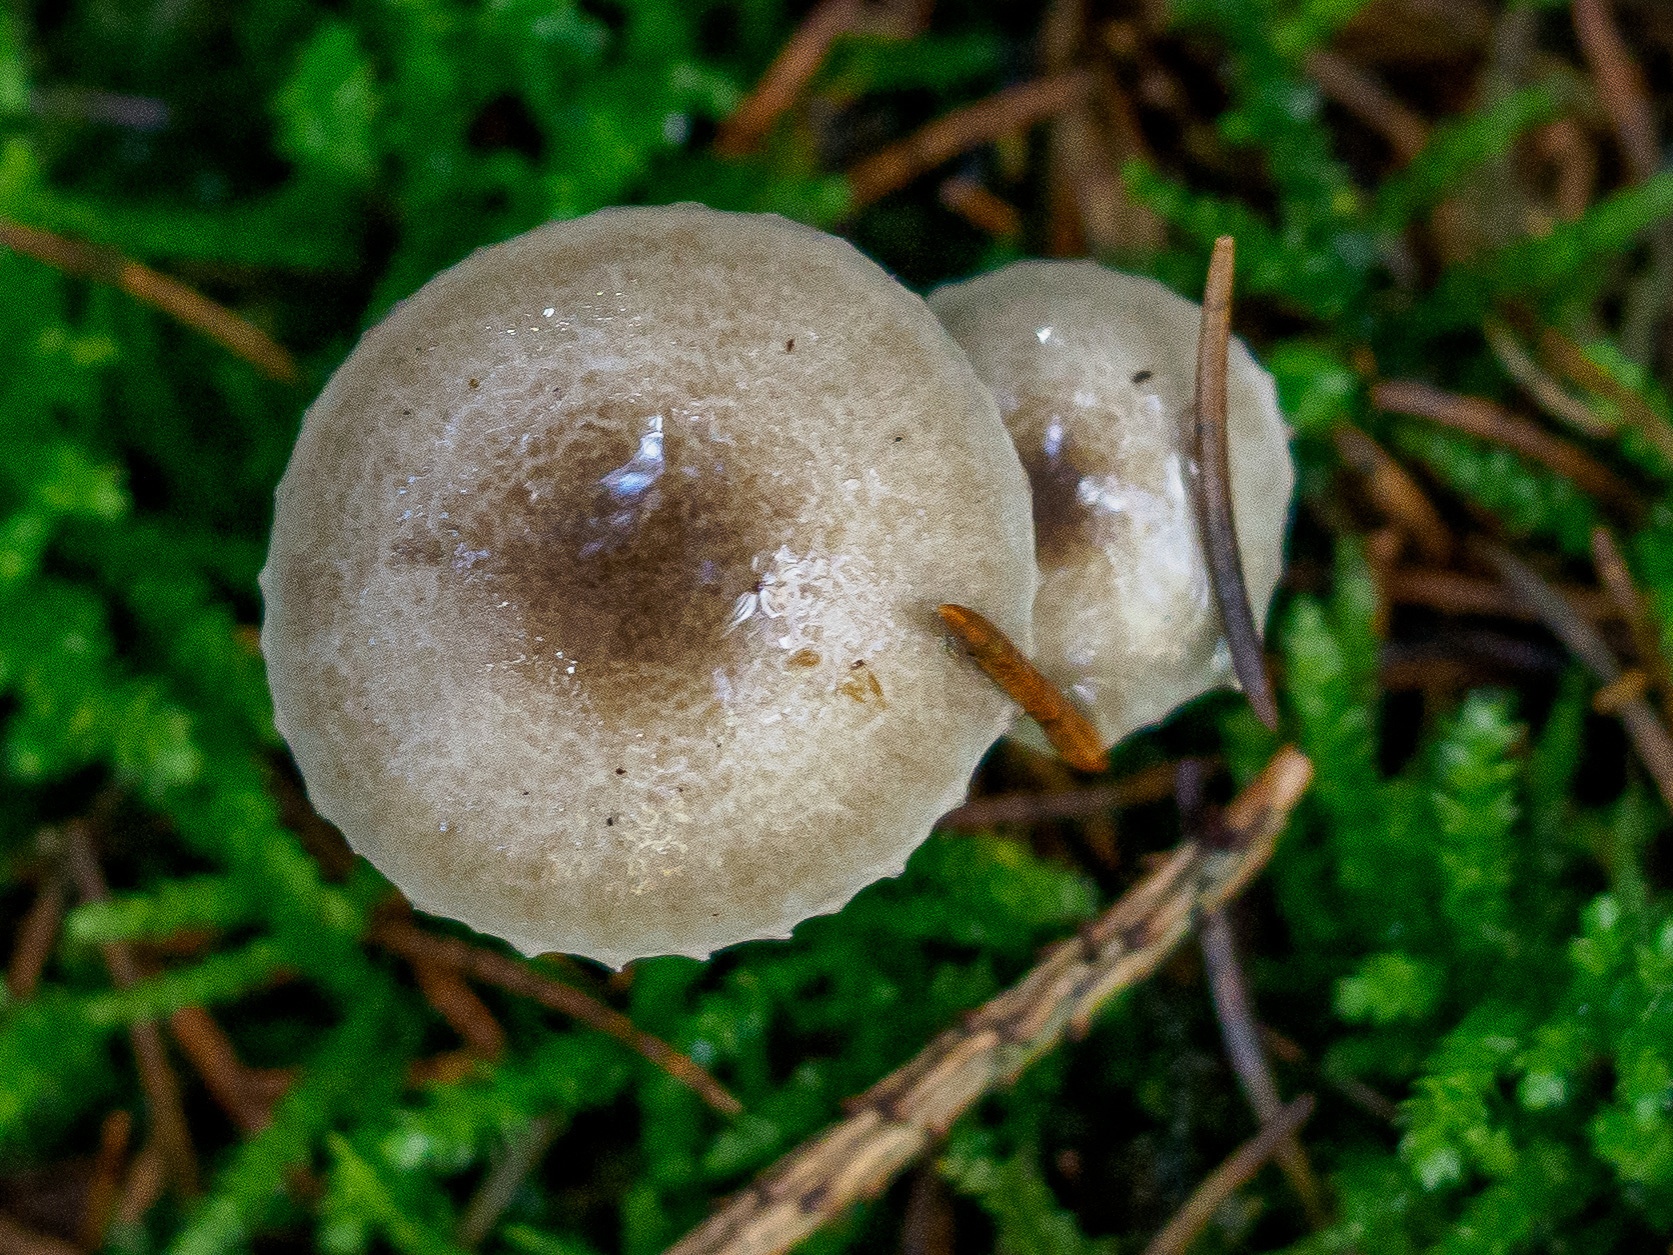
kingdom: Fungi
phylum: Basidiomycota
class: Agaricomycetes
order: Agaricales
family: Hygrophoraceae
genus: Hygrophorus
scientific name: Hygrophorus pustulatus
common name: Blistered woodwax
